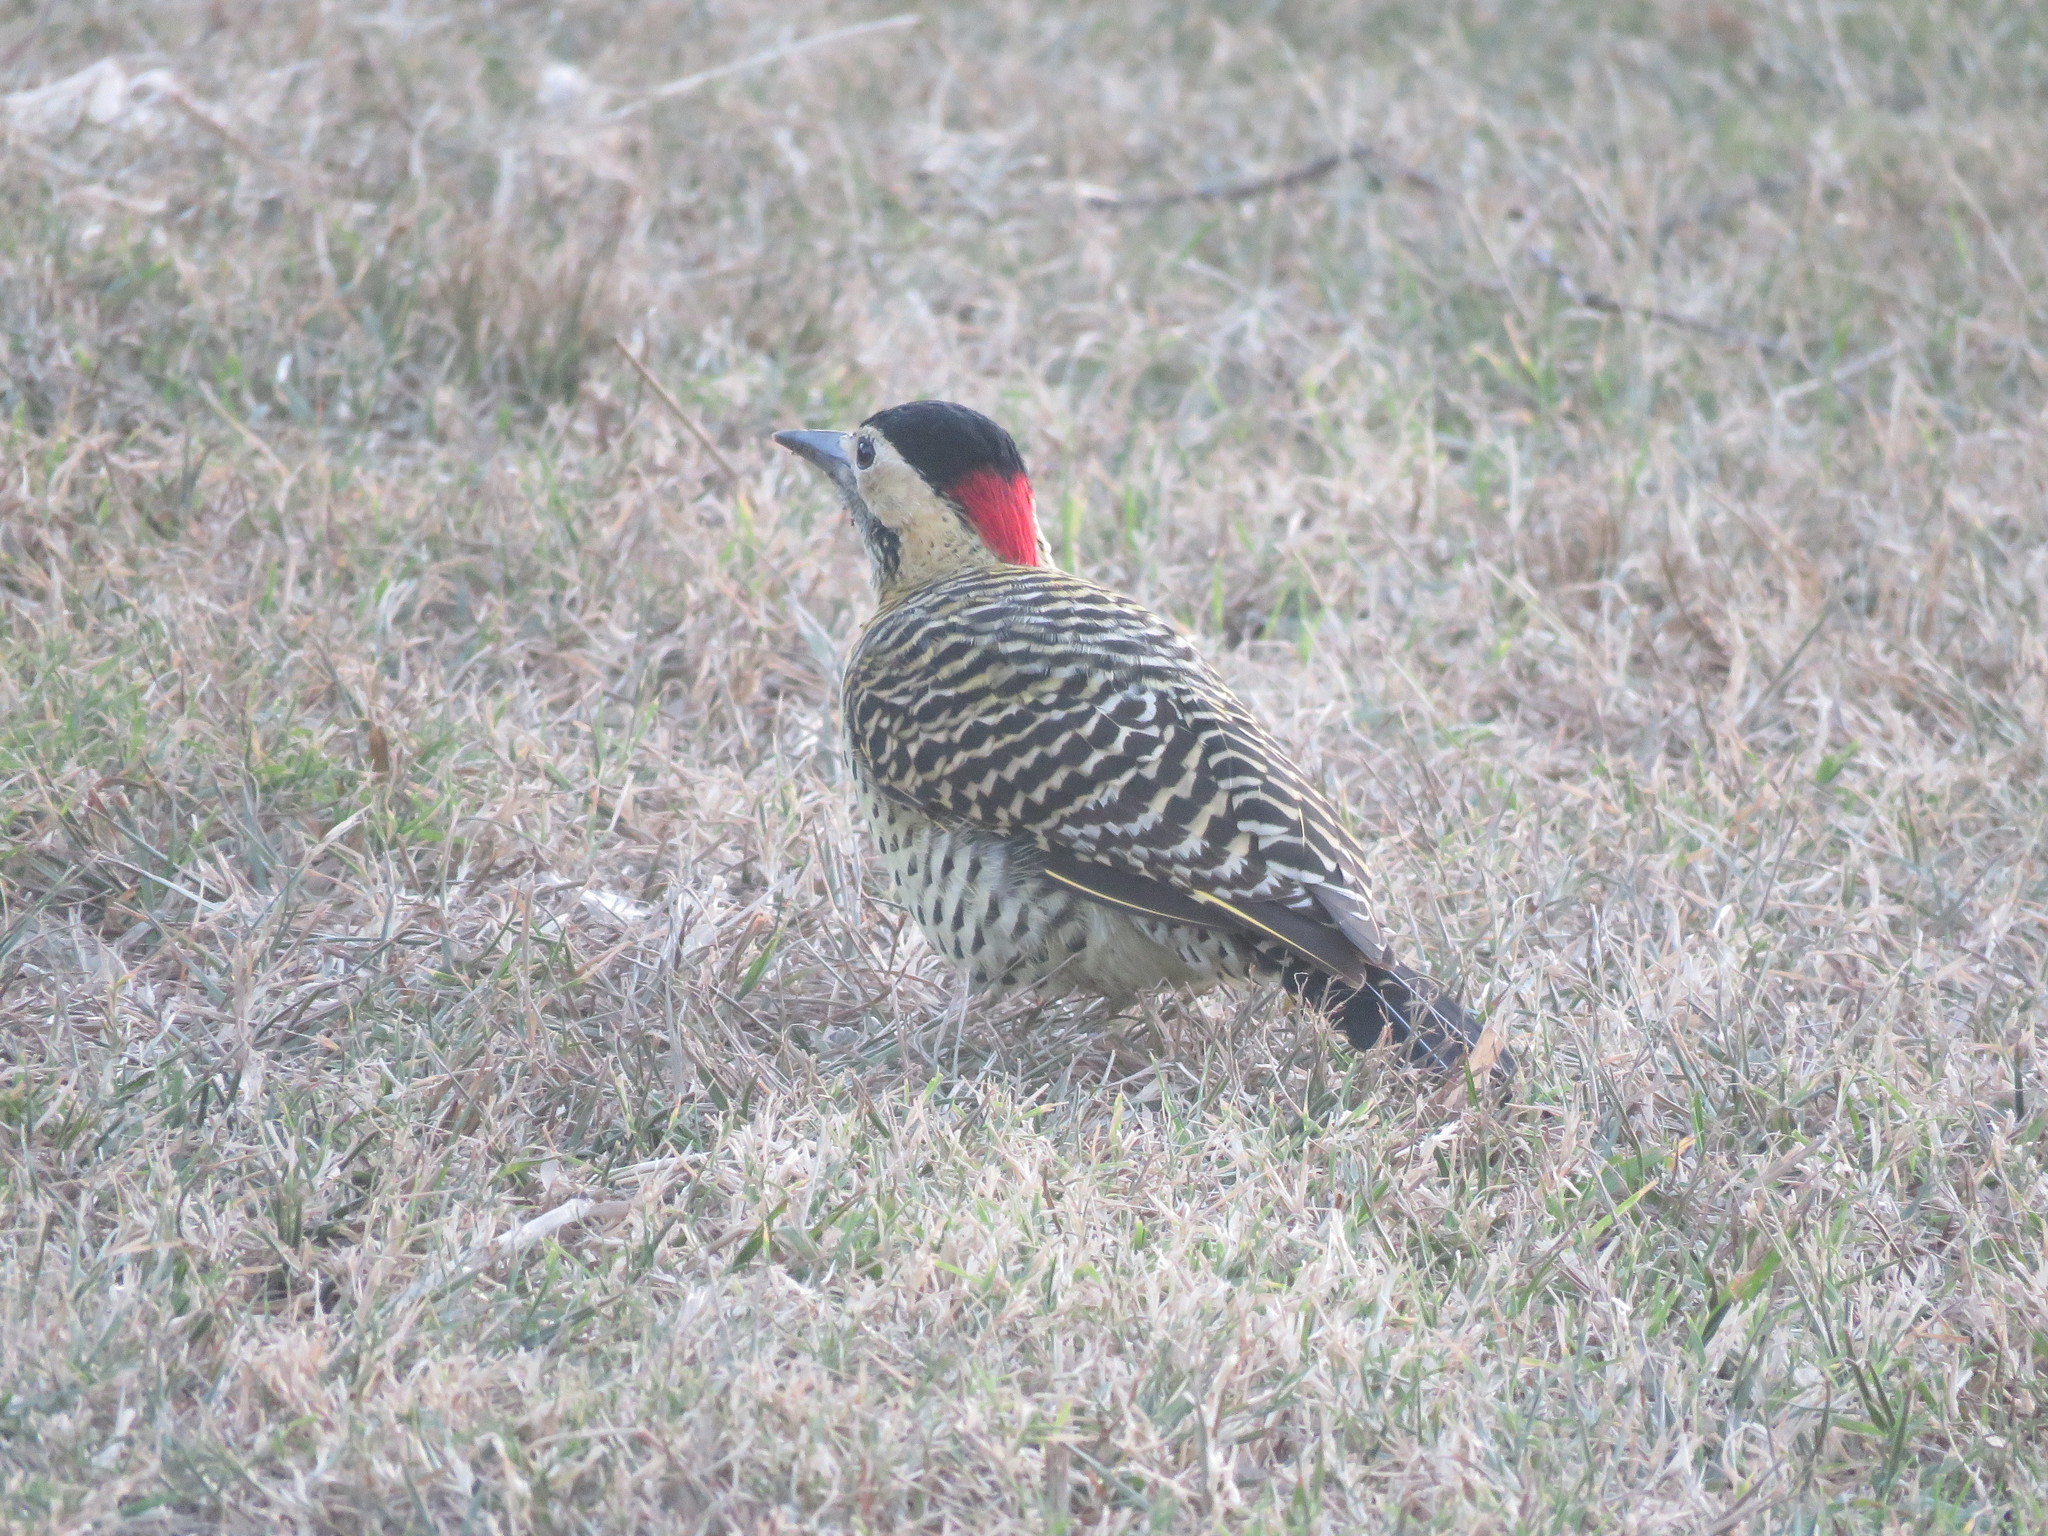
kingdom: Animalia
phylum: Chordata
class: Aves
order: Piciformes
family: Picidae
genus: Colaptes
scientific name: Colaptes melanochloros
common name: Green-barred woodpecker
